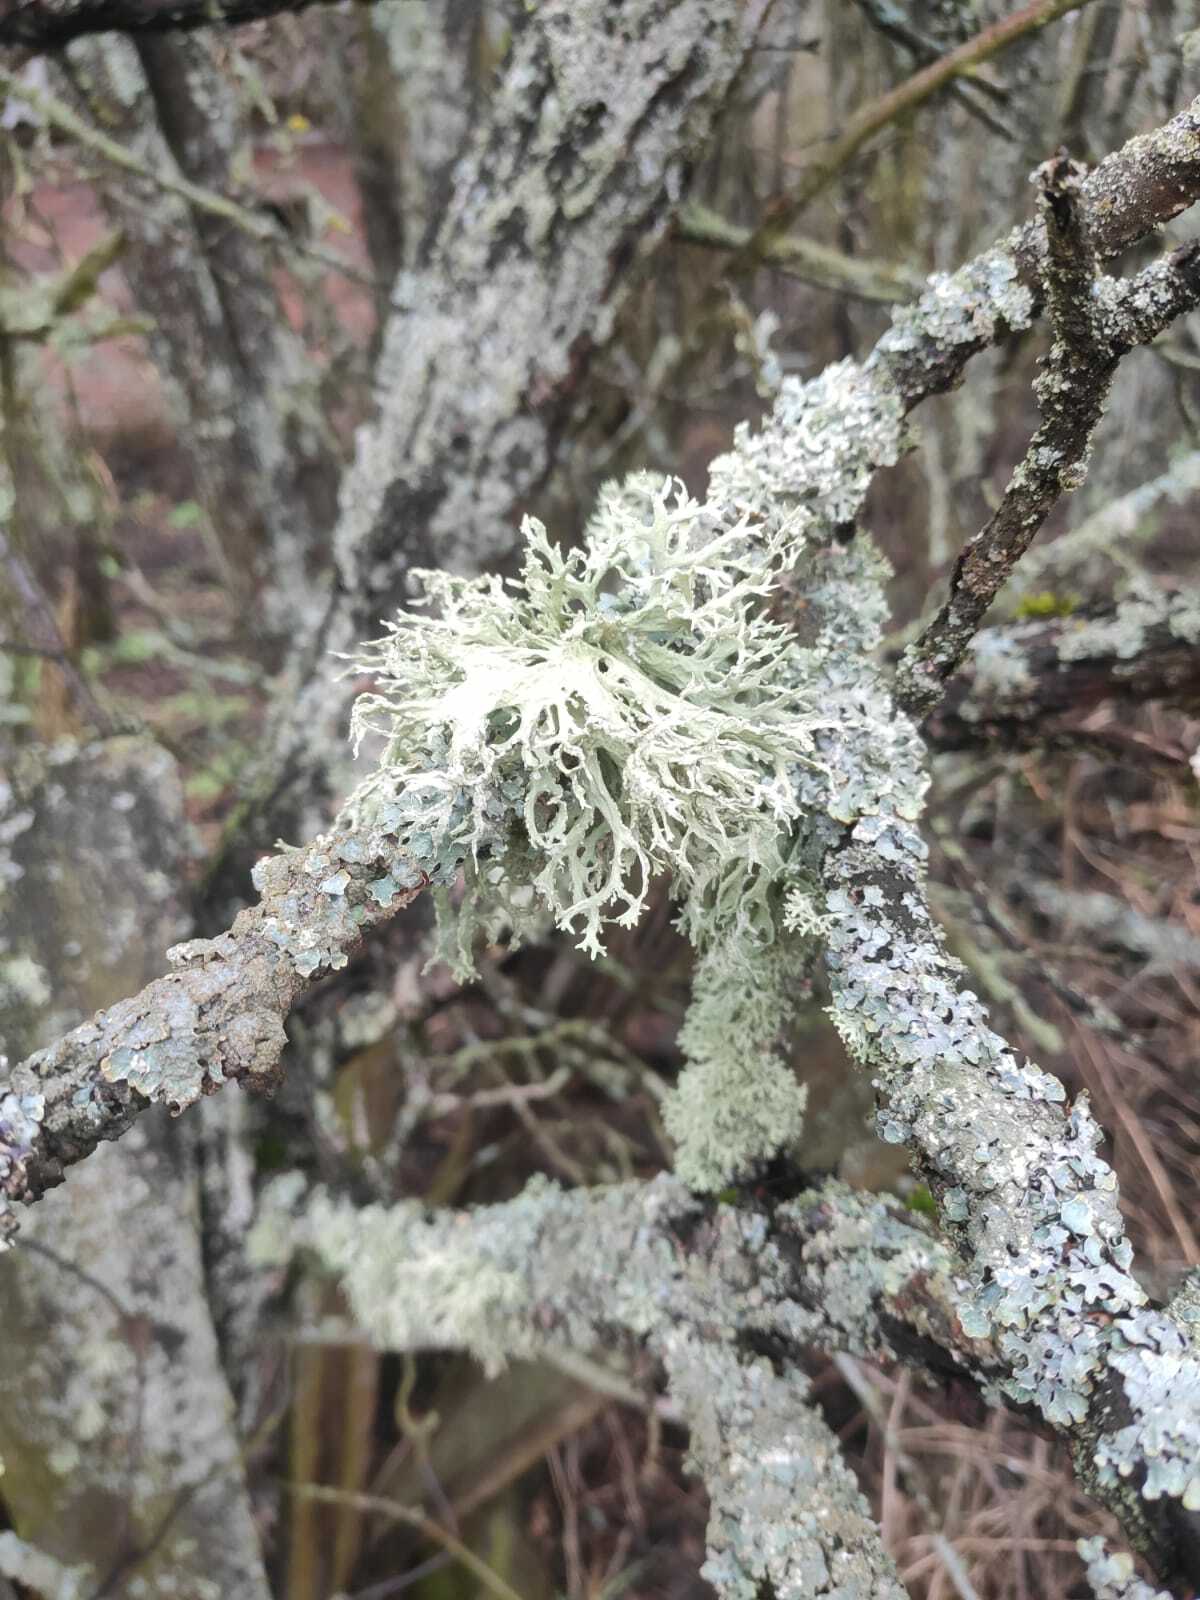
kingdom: Fungi
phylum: Ascomycota
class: Lecanoromycetes
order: Lecanorales
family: Parmeliaceae
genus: Evernia
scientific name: Evernia prunastri
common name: Oak moss
